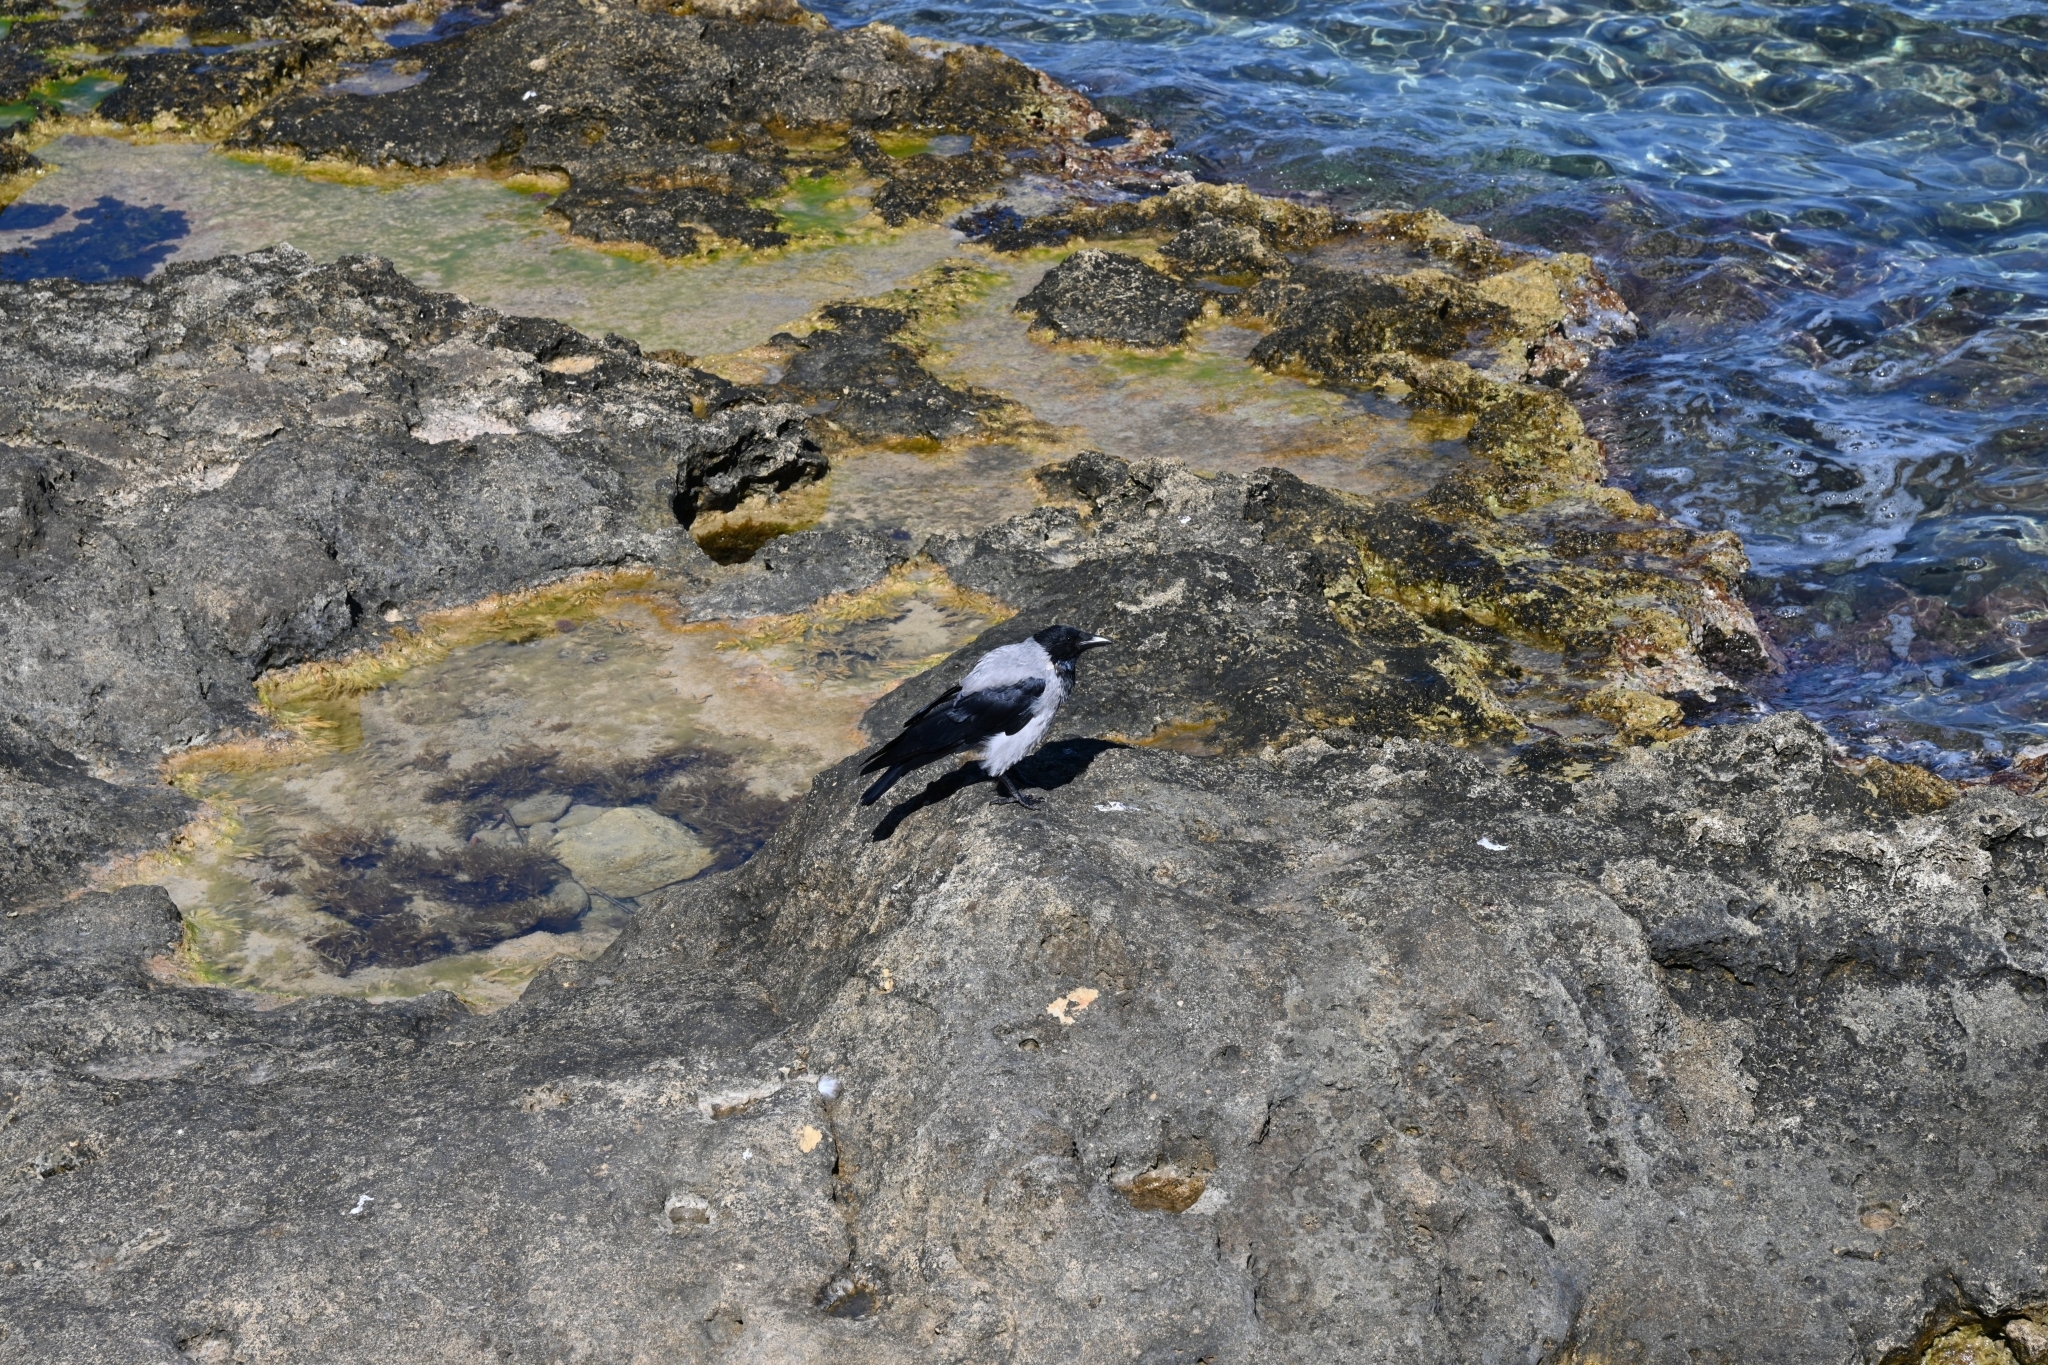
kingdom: Animalia
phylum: Chordata
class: Aves
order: Passeriformes
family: Corvidae
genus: Corvus
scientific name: Corvus cornix
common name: Hooded crow
